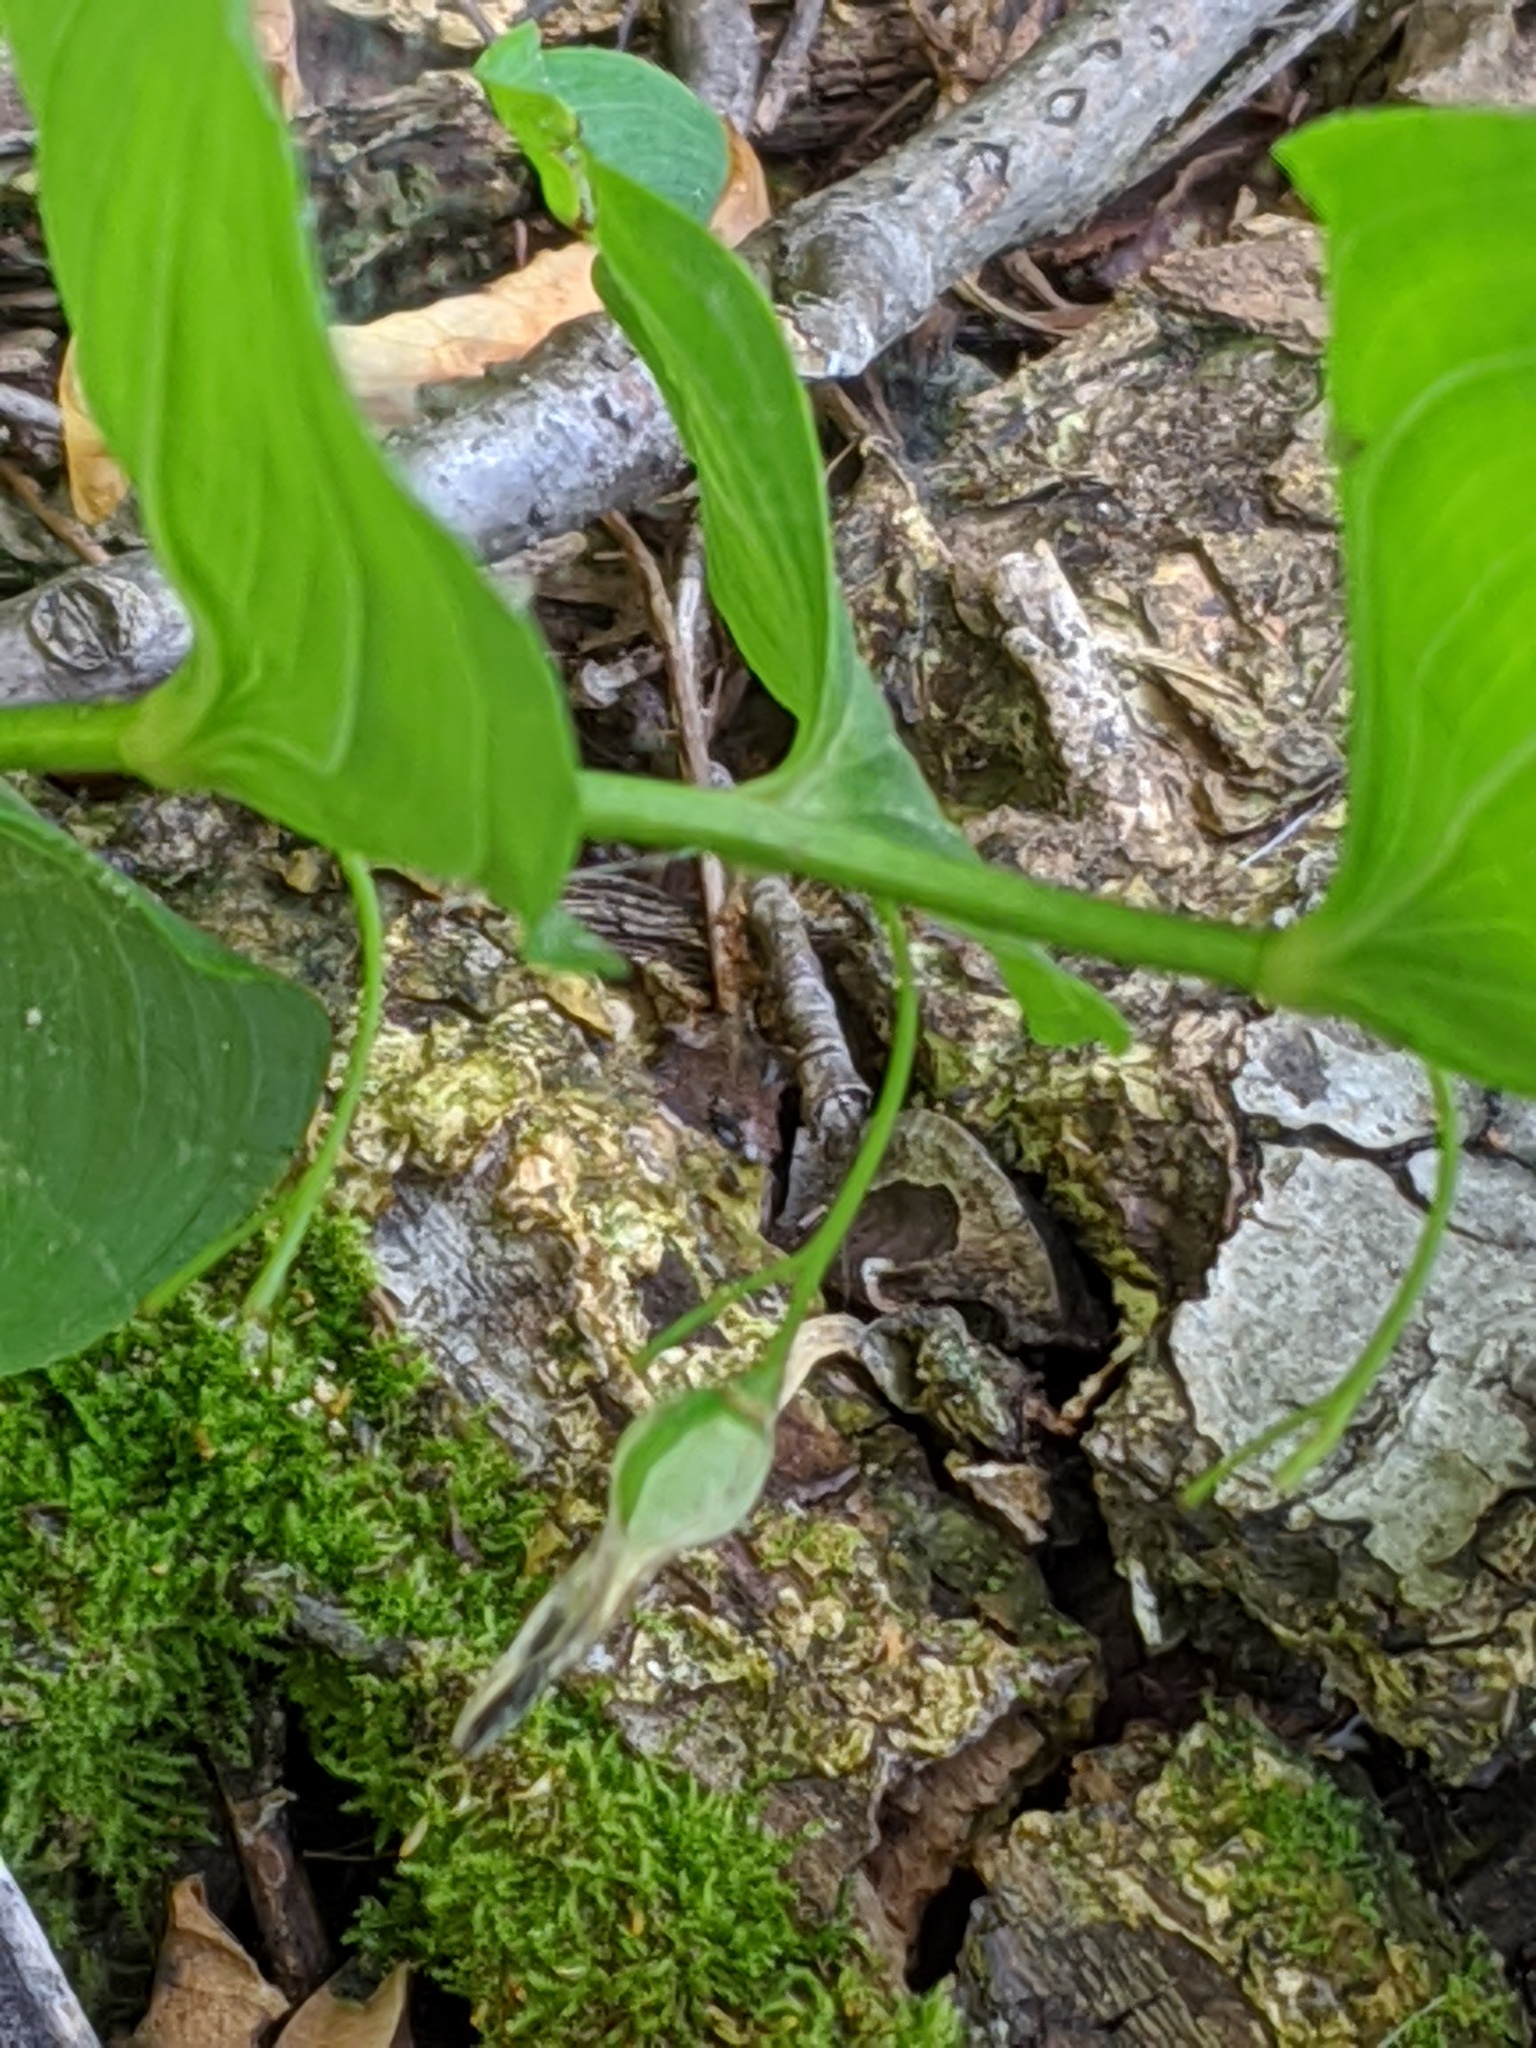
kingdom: Plantae
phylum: Tracheophyta
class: Liliopsida
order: Asparagales
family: Asparagaceae
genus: Polygonatum
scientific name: Polygonatum biflorum
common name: American solomon's-seal
